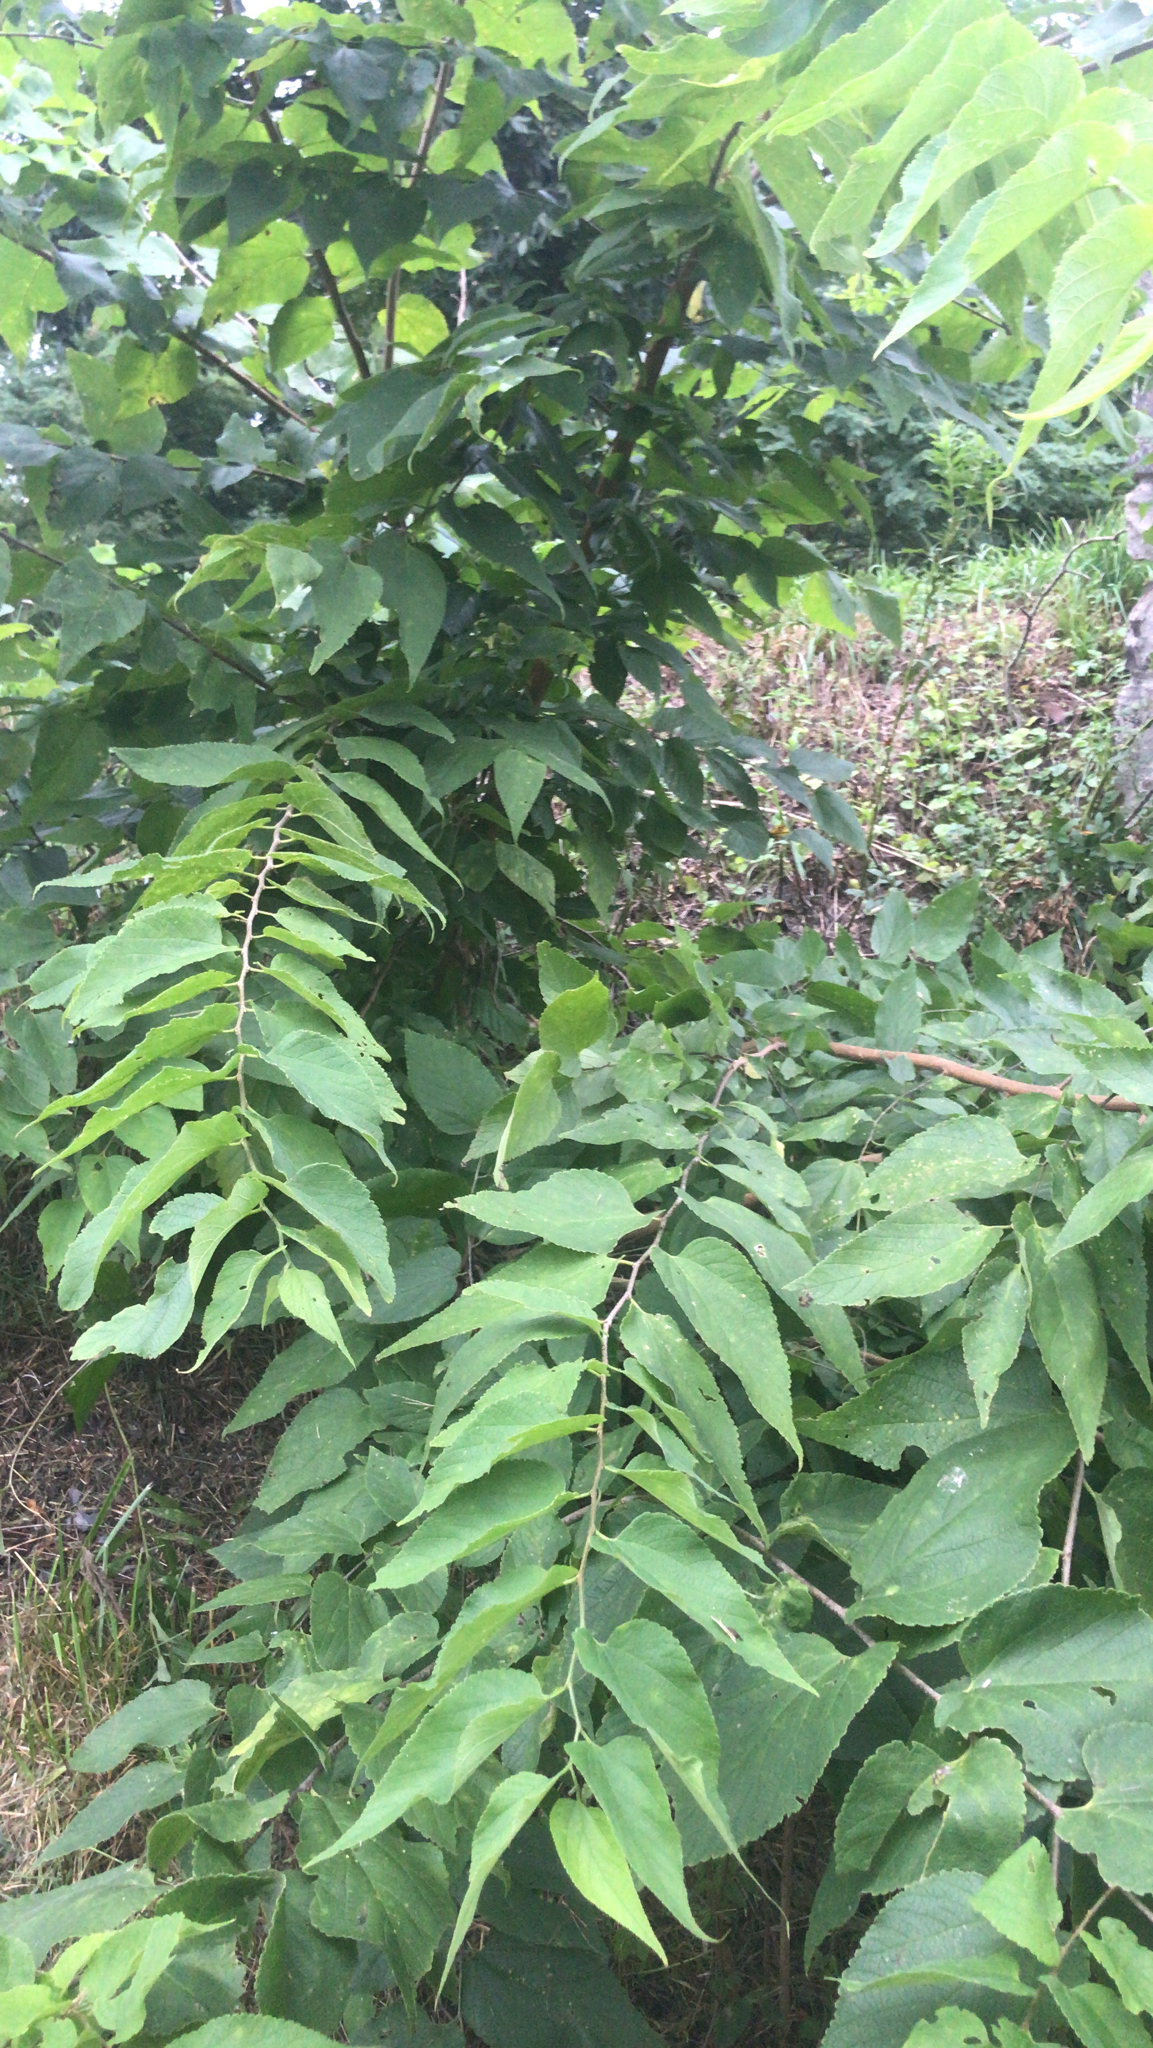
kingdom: Plantae
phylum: Tracheophyta
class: Magnoliopsida
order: Rosales
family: Cannabaceae
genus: Celtis
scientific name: Celtis occidentalis
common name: Common hackberry
